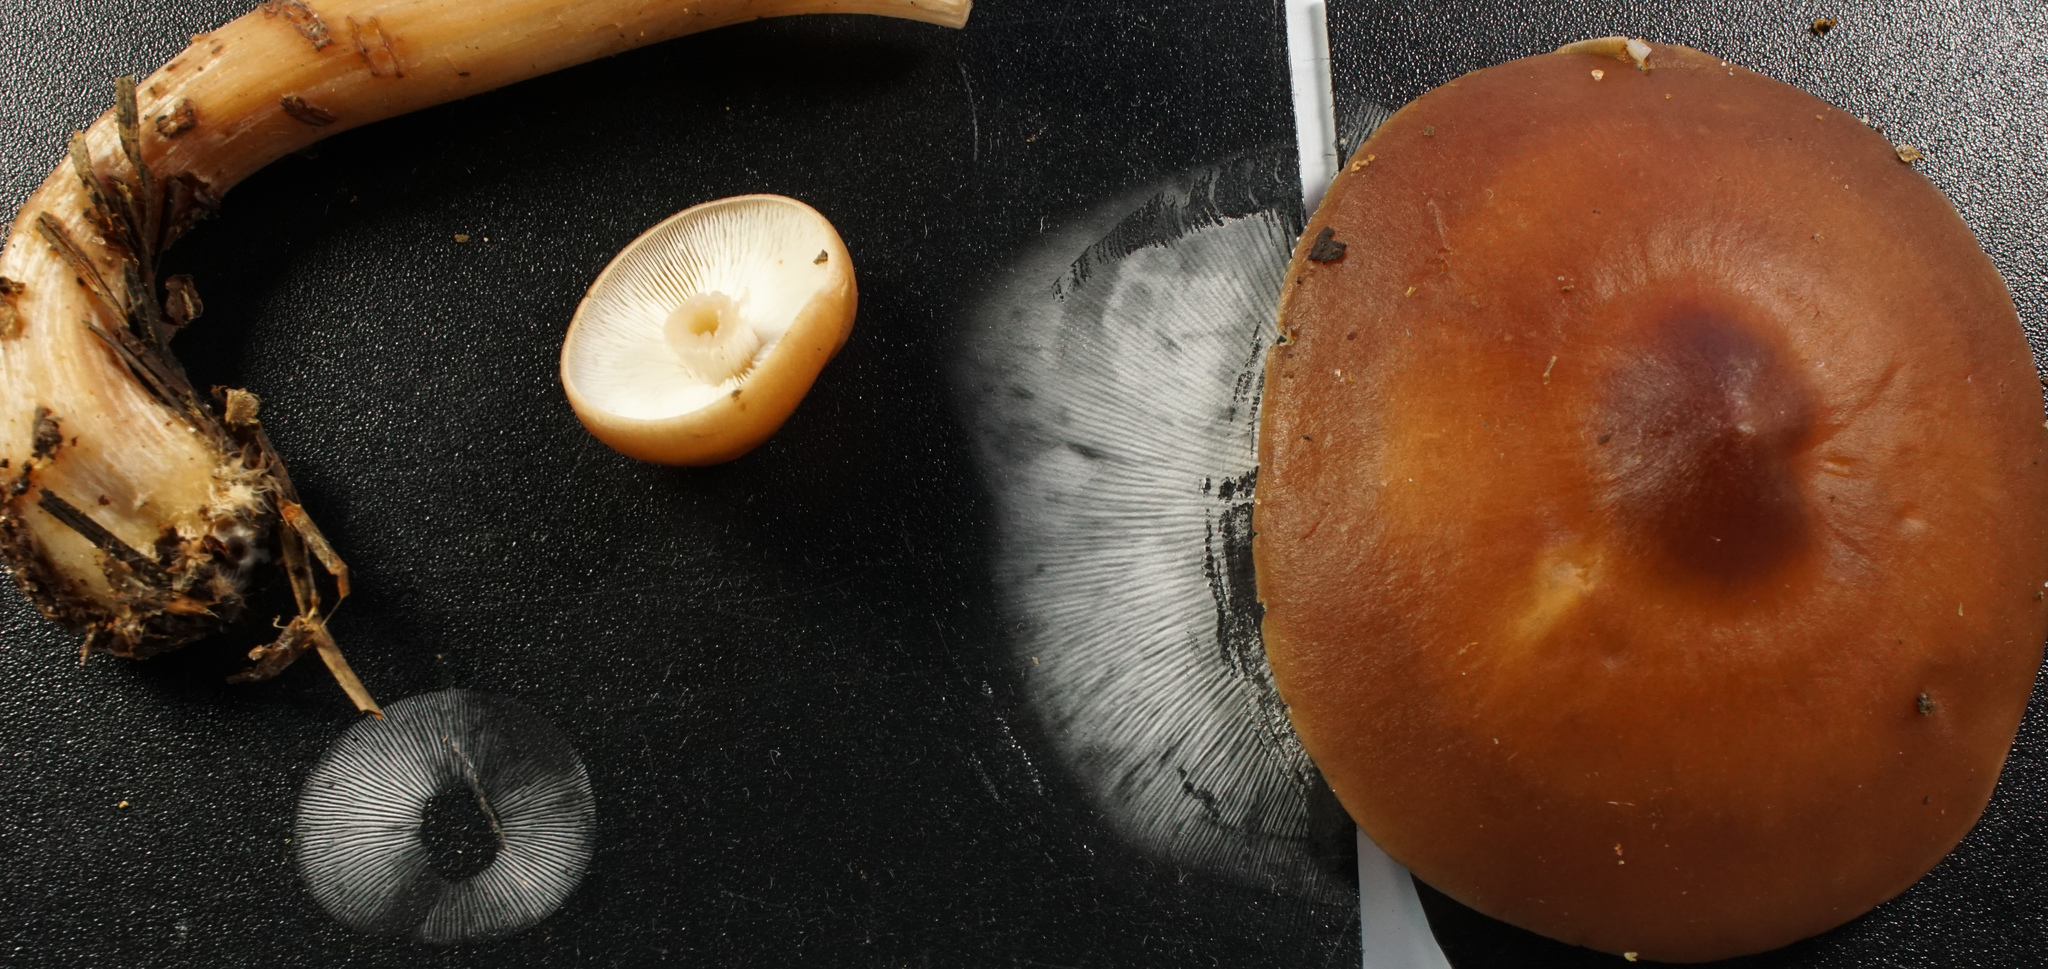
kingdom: Fungi
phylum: Basidiomycota
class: Agaricomycetes
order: Agaricales
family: Omphalotaceae
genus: Rhodocollybia
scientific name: Rhodocollybia butyracea
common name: Butter cap
